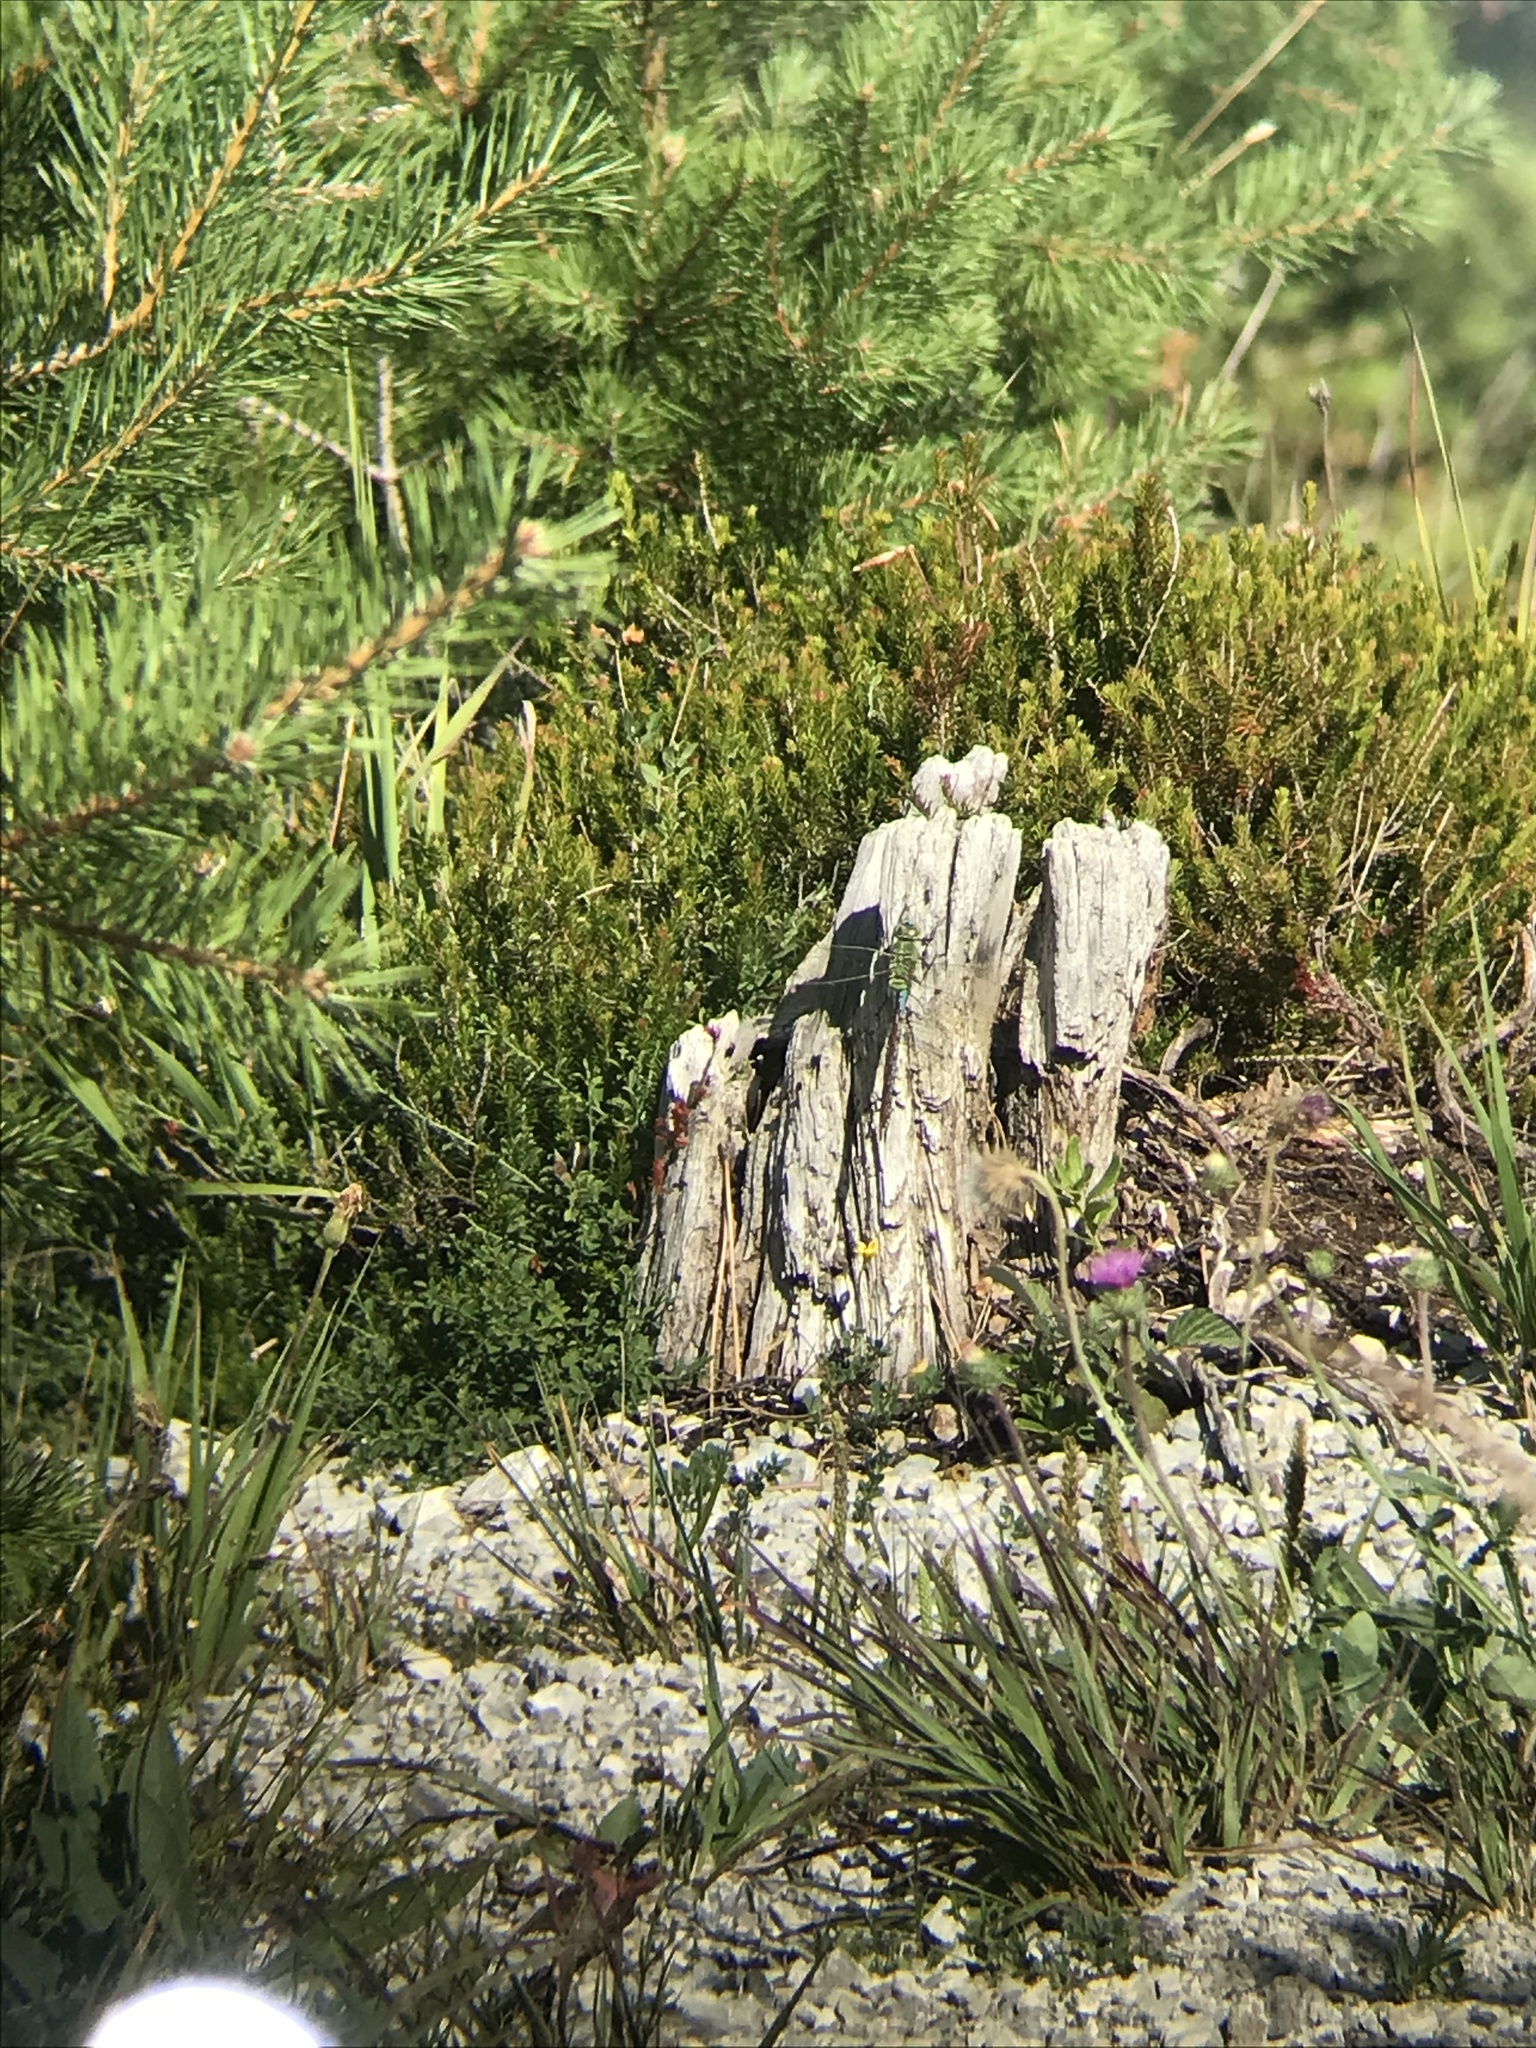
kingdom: Animalia
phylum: Arthropoda
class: Insecta
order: Odonata
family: Aeshnidae
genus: Anax
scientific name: Anax imperator
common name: Emperor dragonfly
